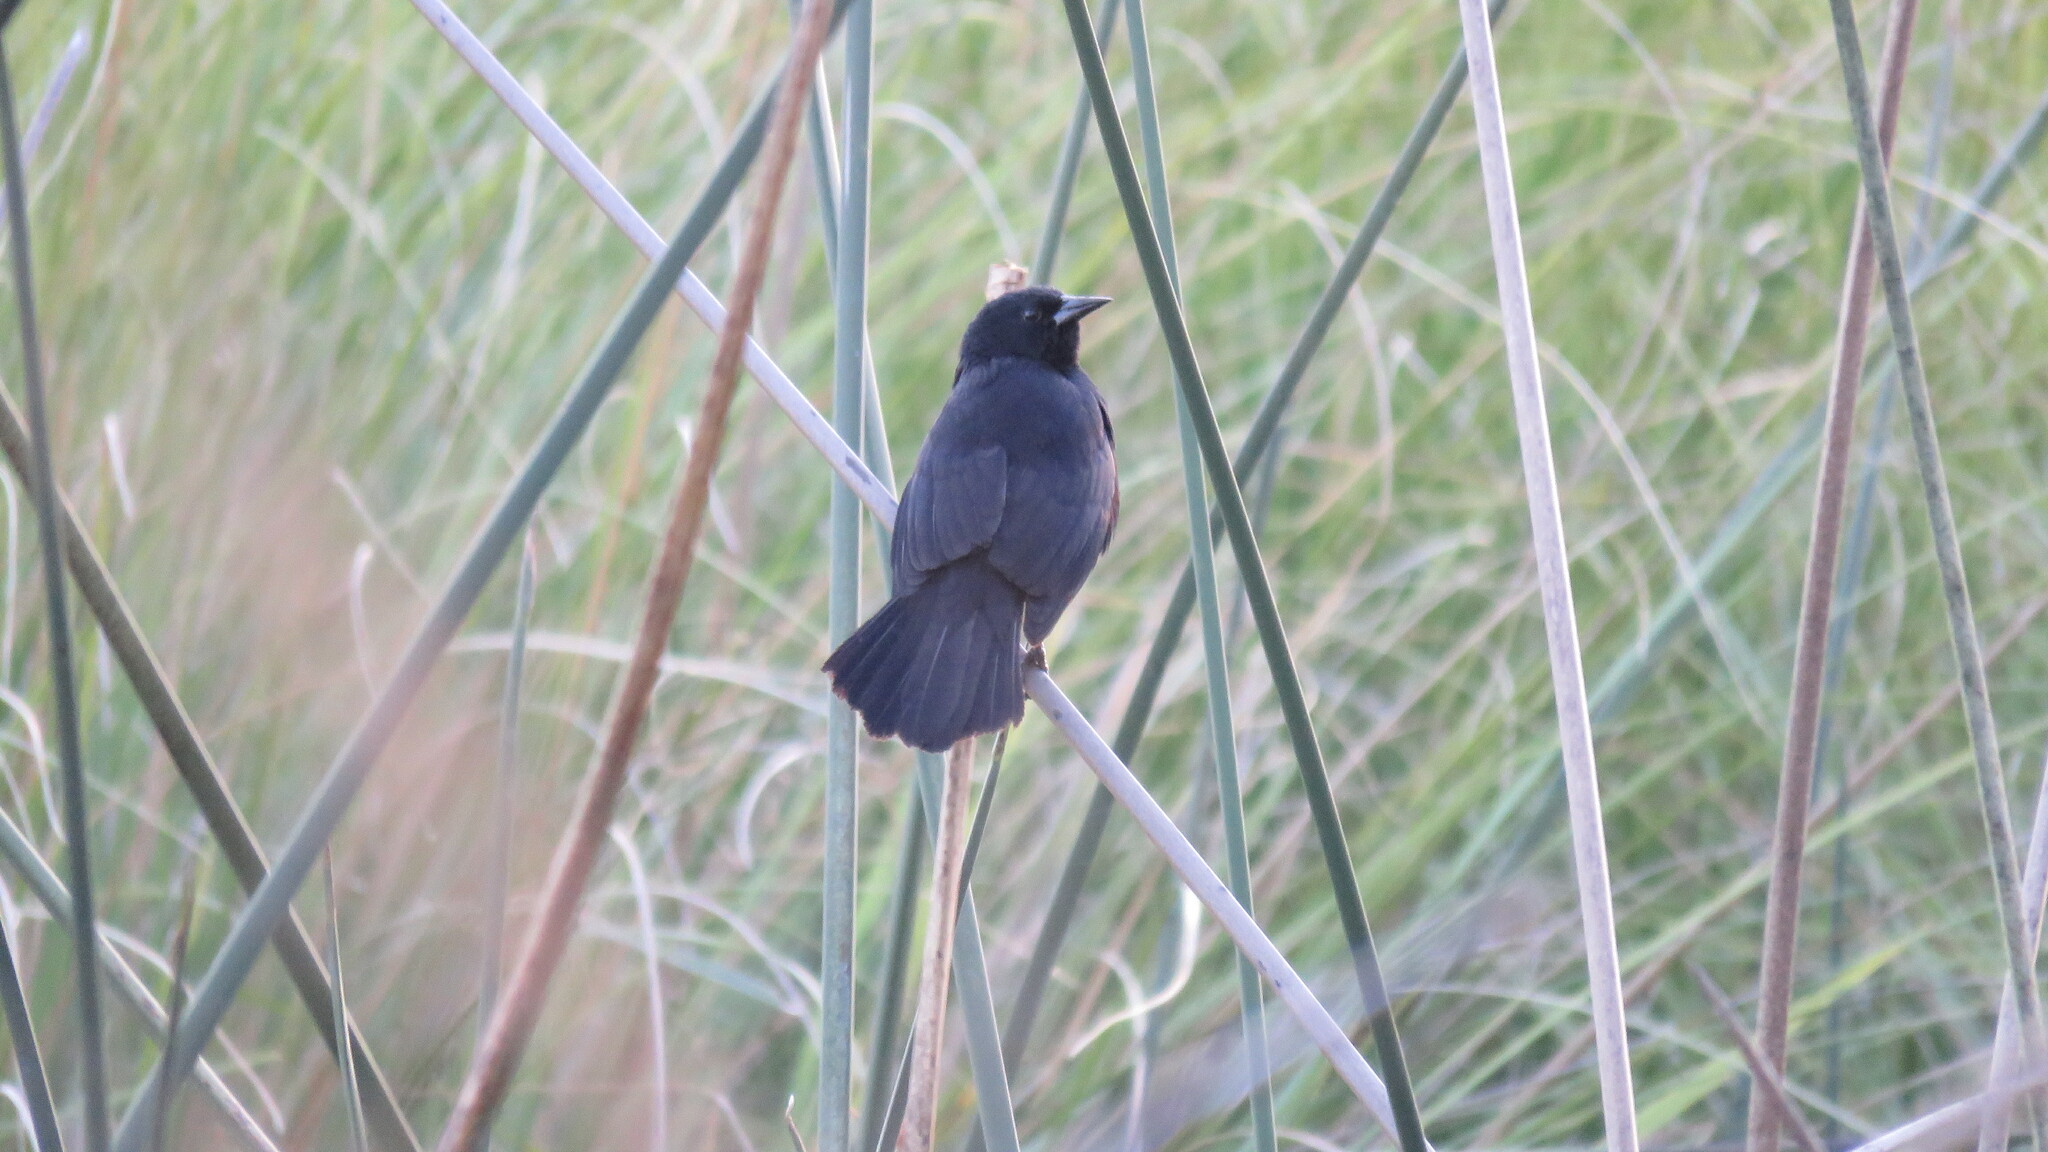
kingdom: Animalia
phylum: Chordata
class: Aves
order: Passeriformes
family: Icteridae
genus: Agelasticus
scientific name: Agelasticus cyanopus
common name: Unicolored blackbird
